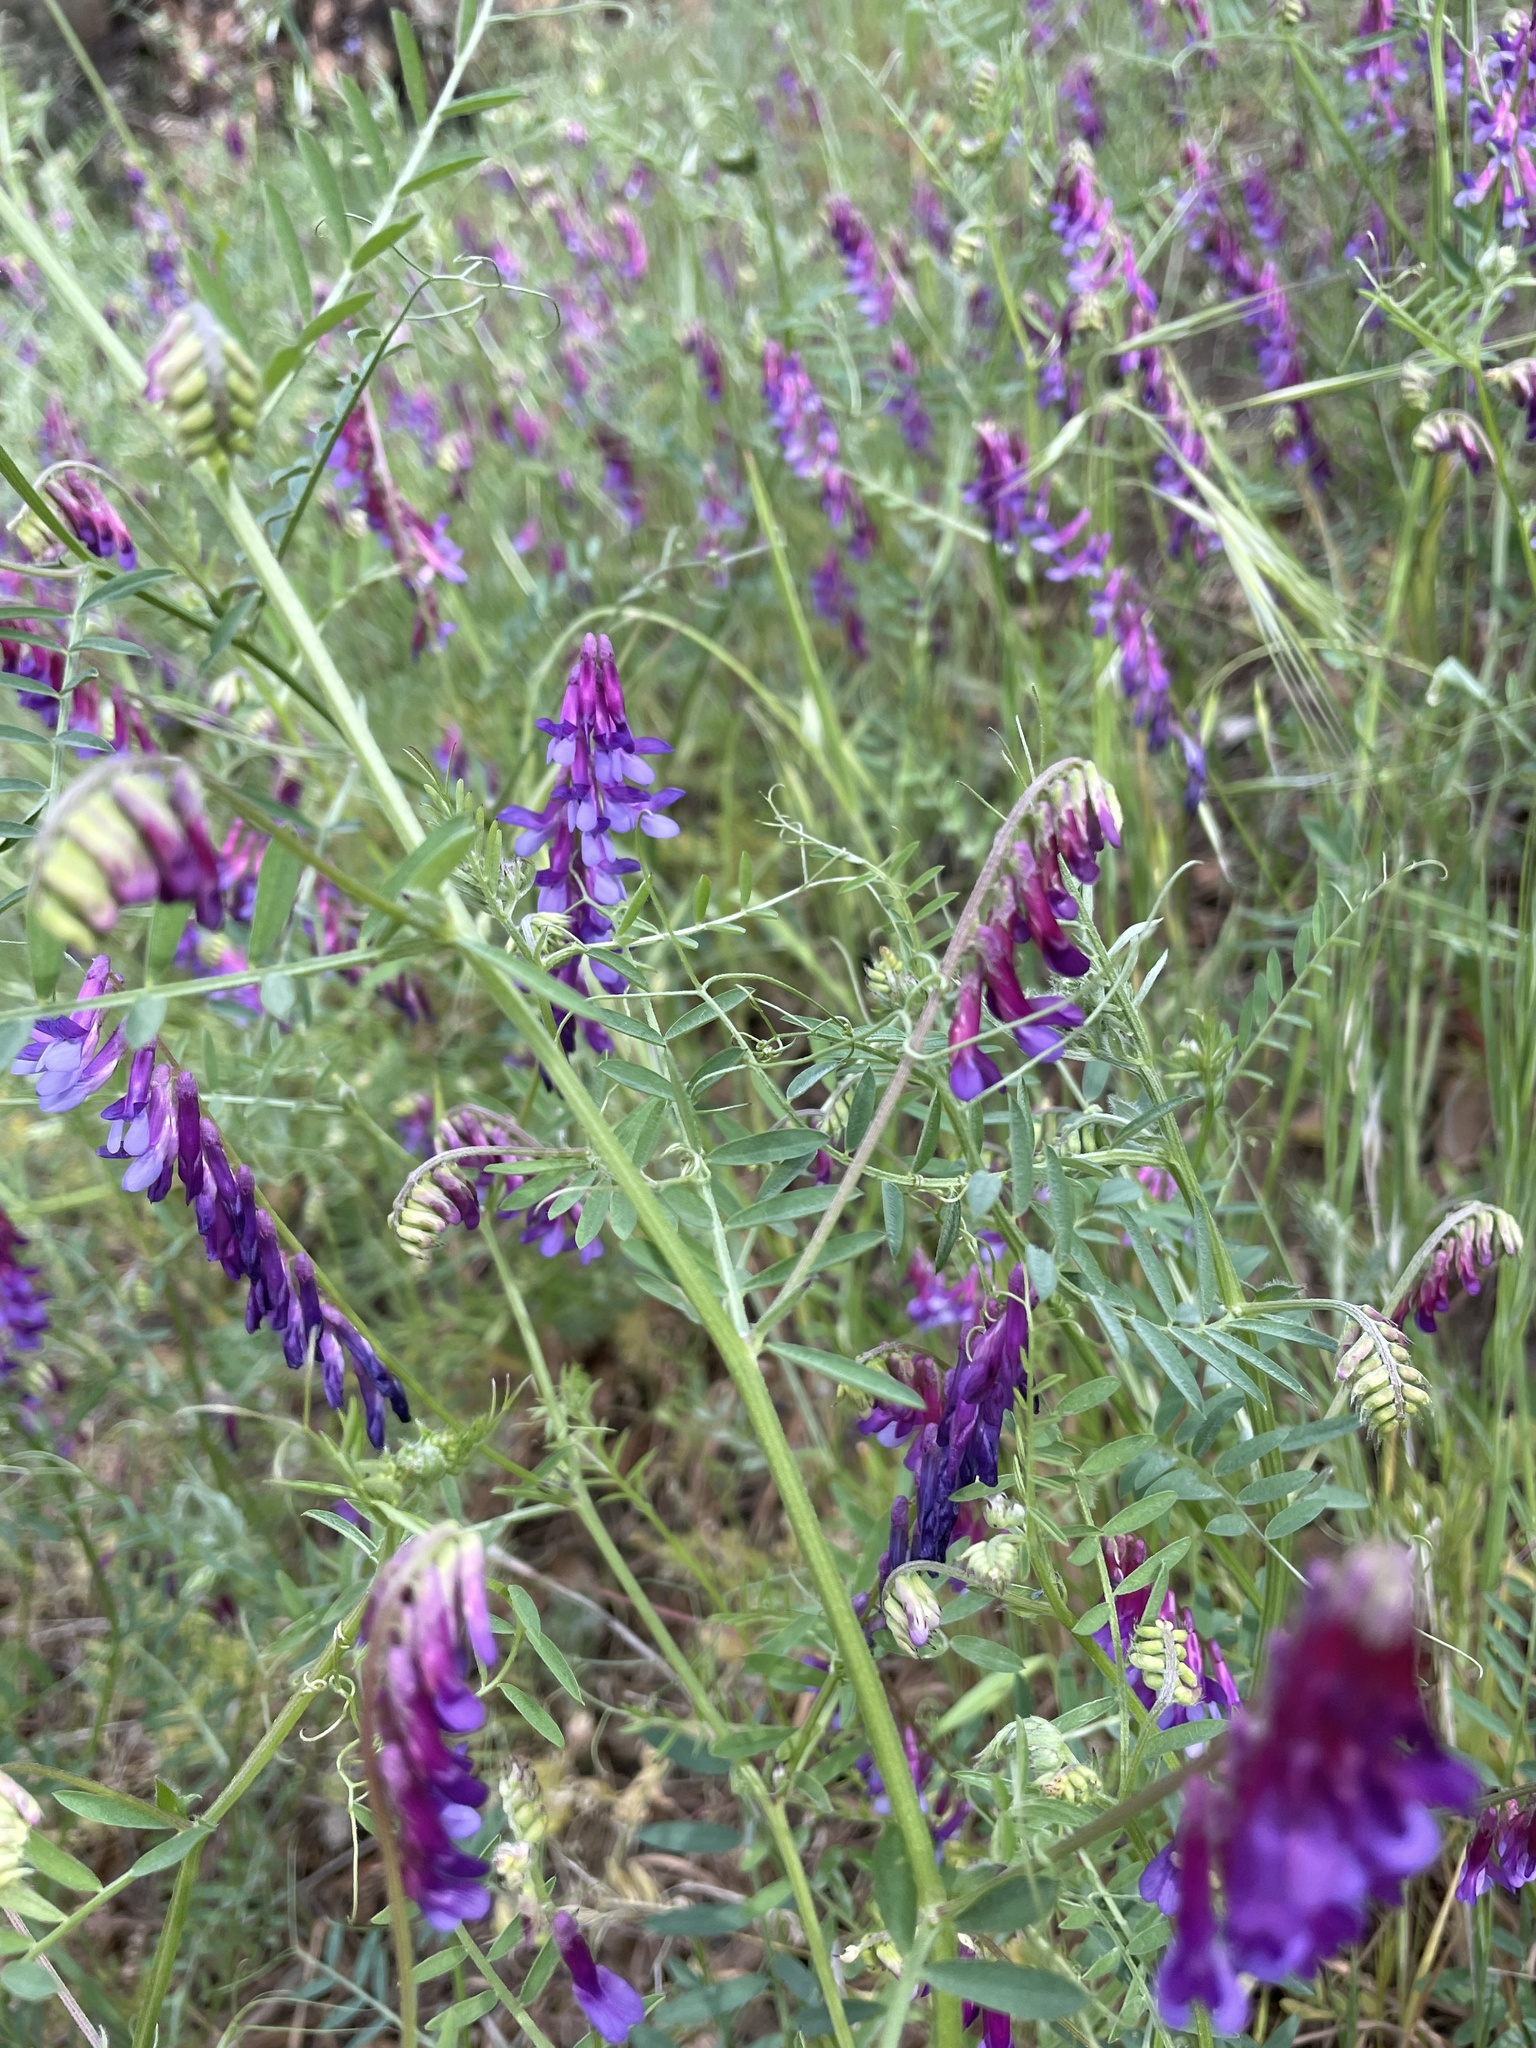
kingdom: Plantae
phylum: Tracheophyta
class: Magnoliopsida
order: Fabales
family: Fabaceae
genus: Vicia
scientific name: Vicia villosa
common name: Fodder vetch
